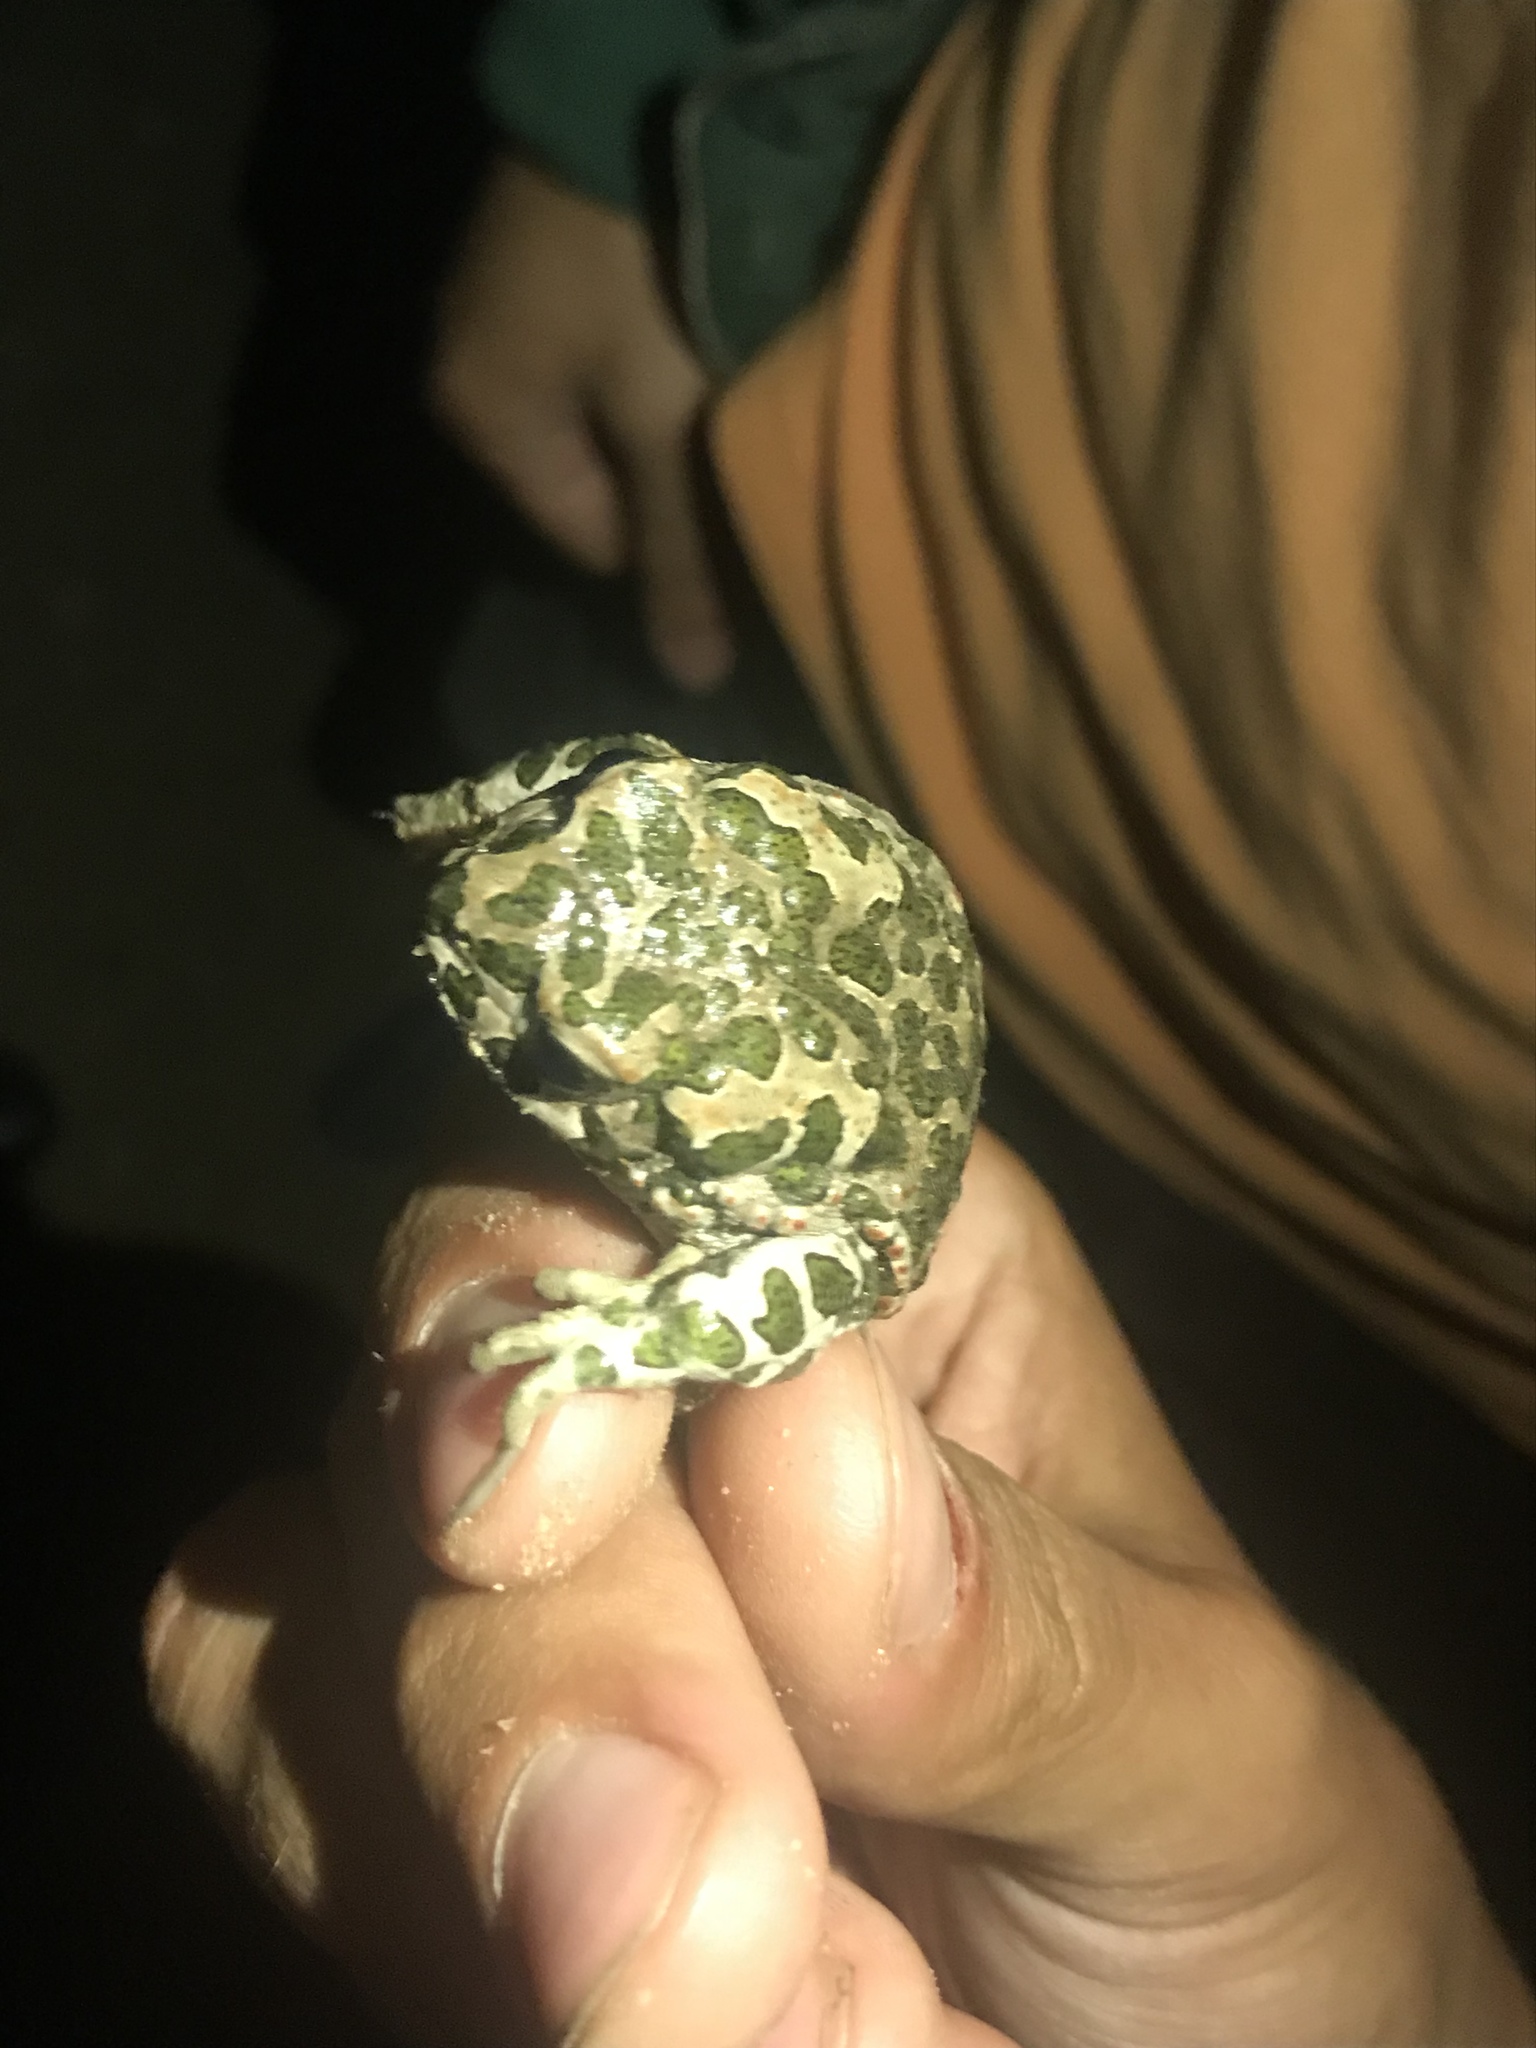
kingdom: Animalia
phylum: Chordata
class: Amphibia
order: Anura
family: Bufonidae
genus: Bufotes
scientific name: Bufotes viridis
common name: European green toad
